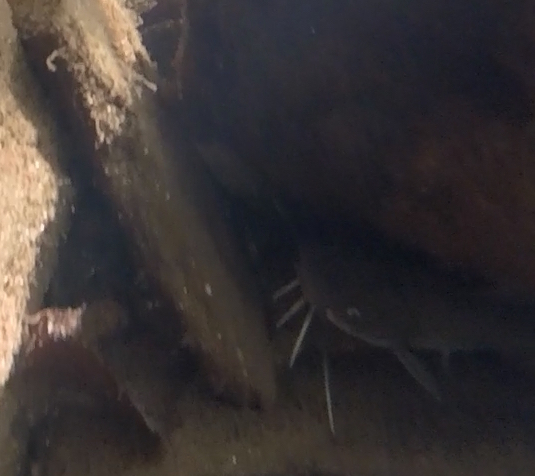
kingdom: Animalia
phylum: Chordata
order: Siluriformes
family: Ictaluridae
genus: Ameiurus
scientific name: Ameiurus natalis
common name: Yellow bullhead
